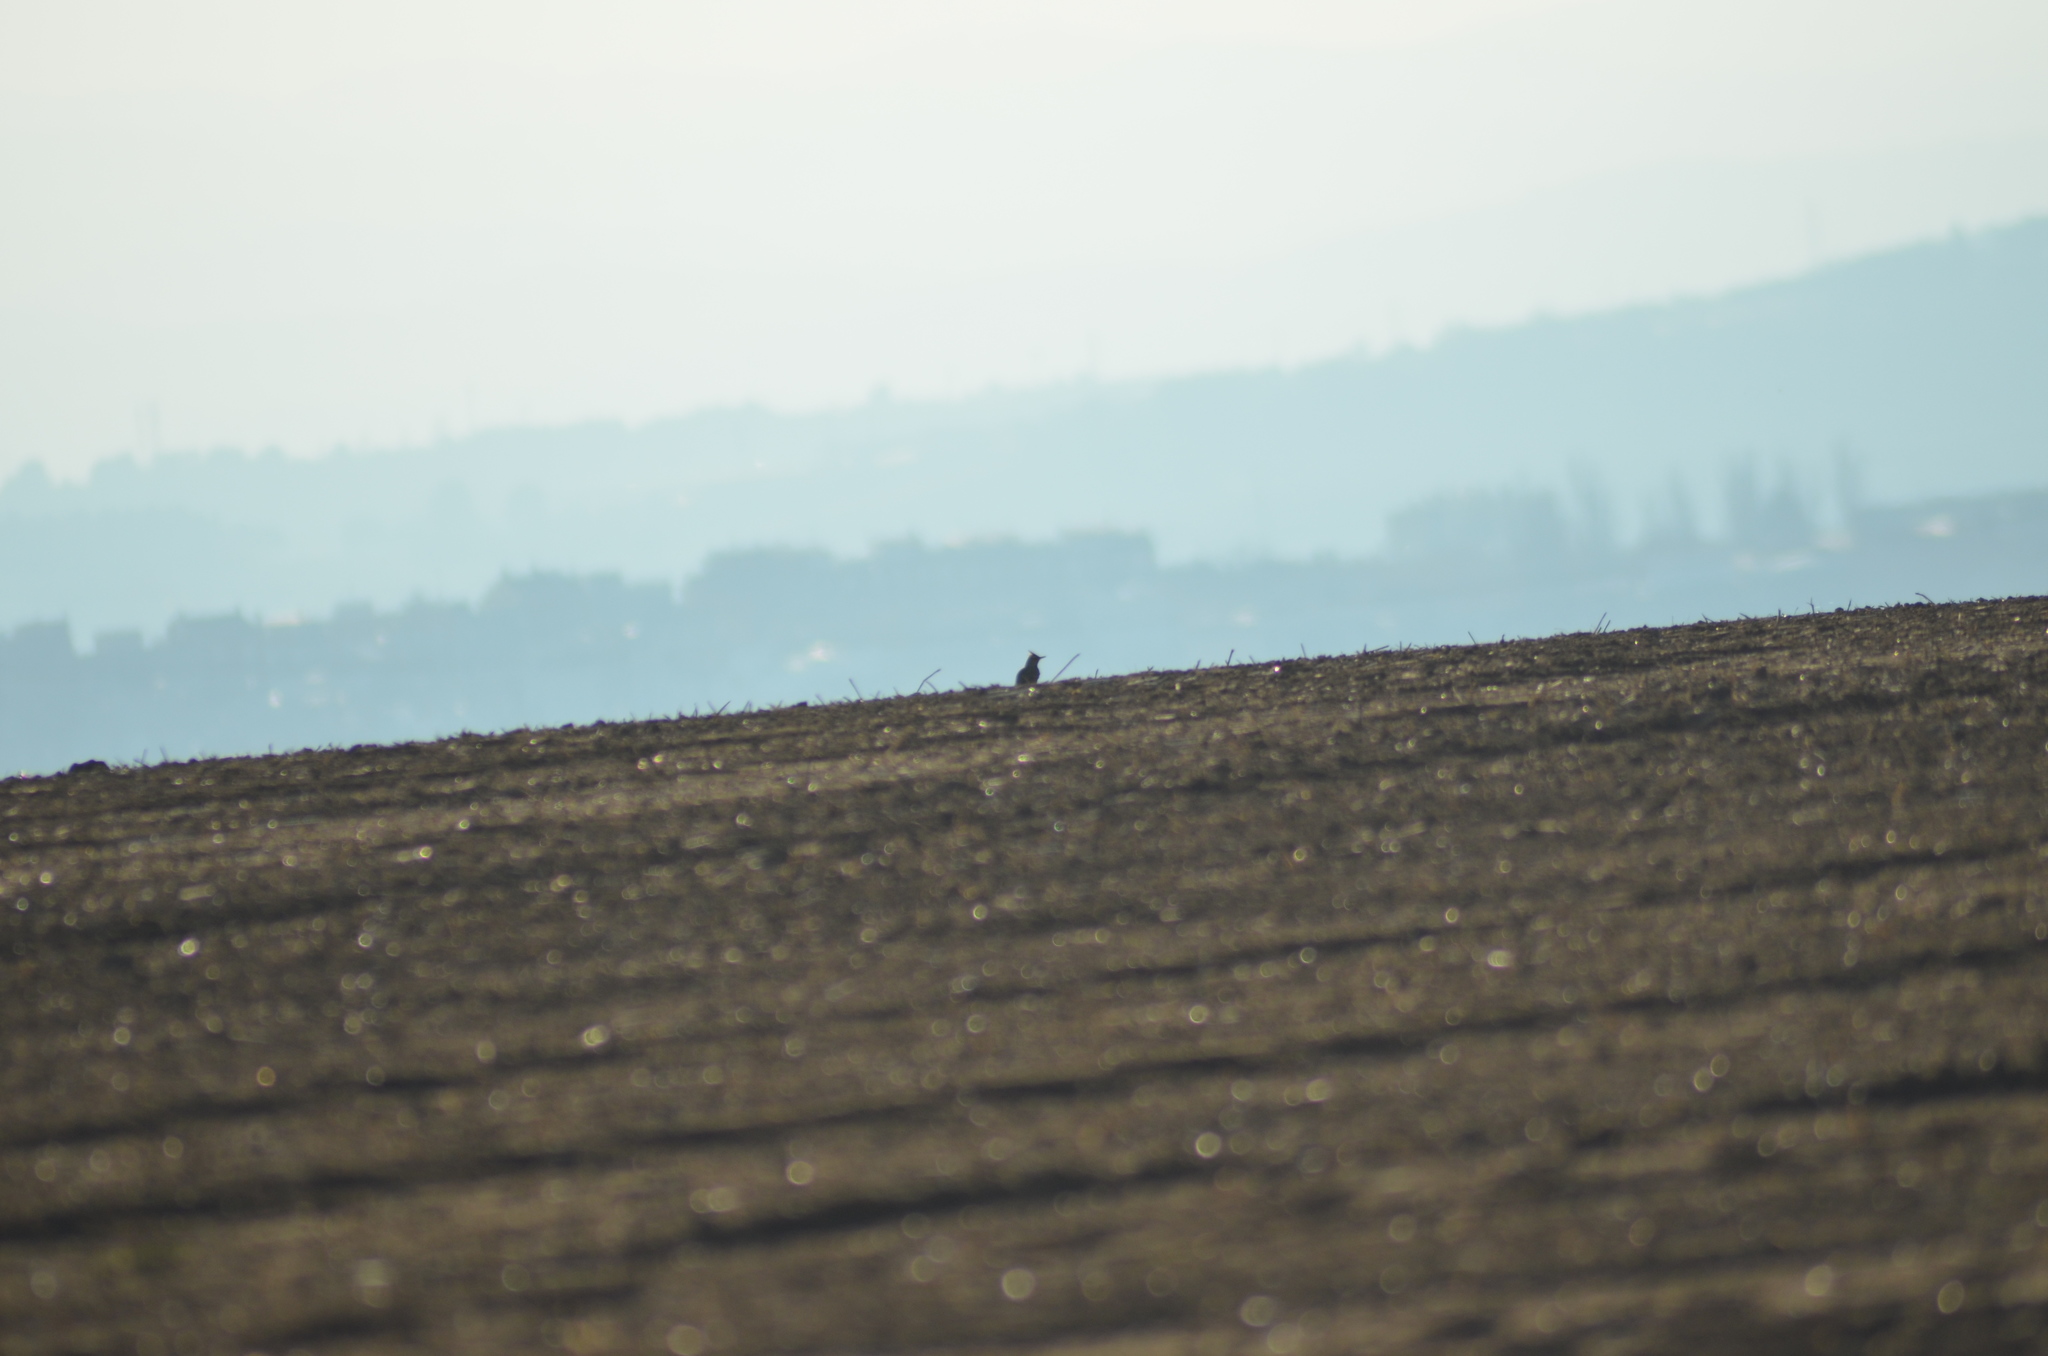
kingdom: Animalia
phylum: Chordata
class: Aves
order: Passeriformes
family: Alaudidae
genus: Galerida
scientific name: Galerida cristata
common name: Crested lark
